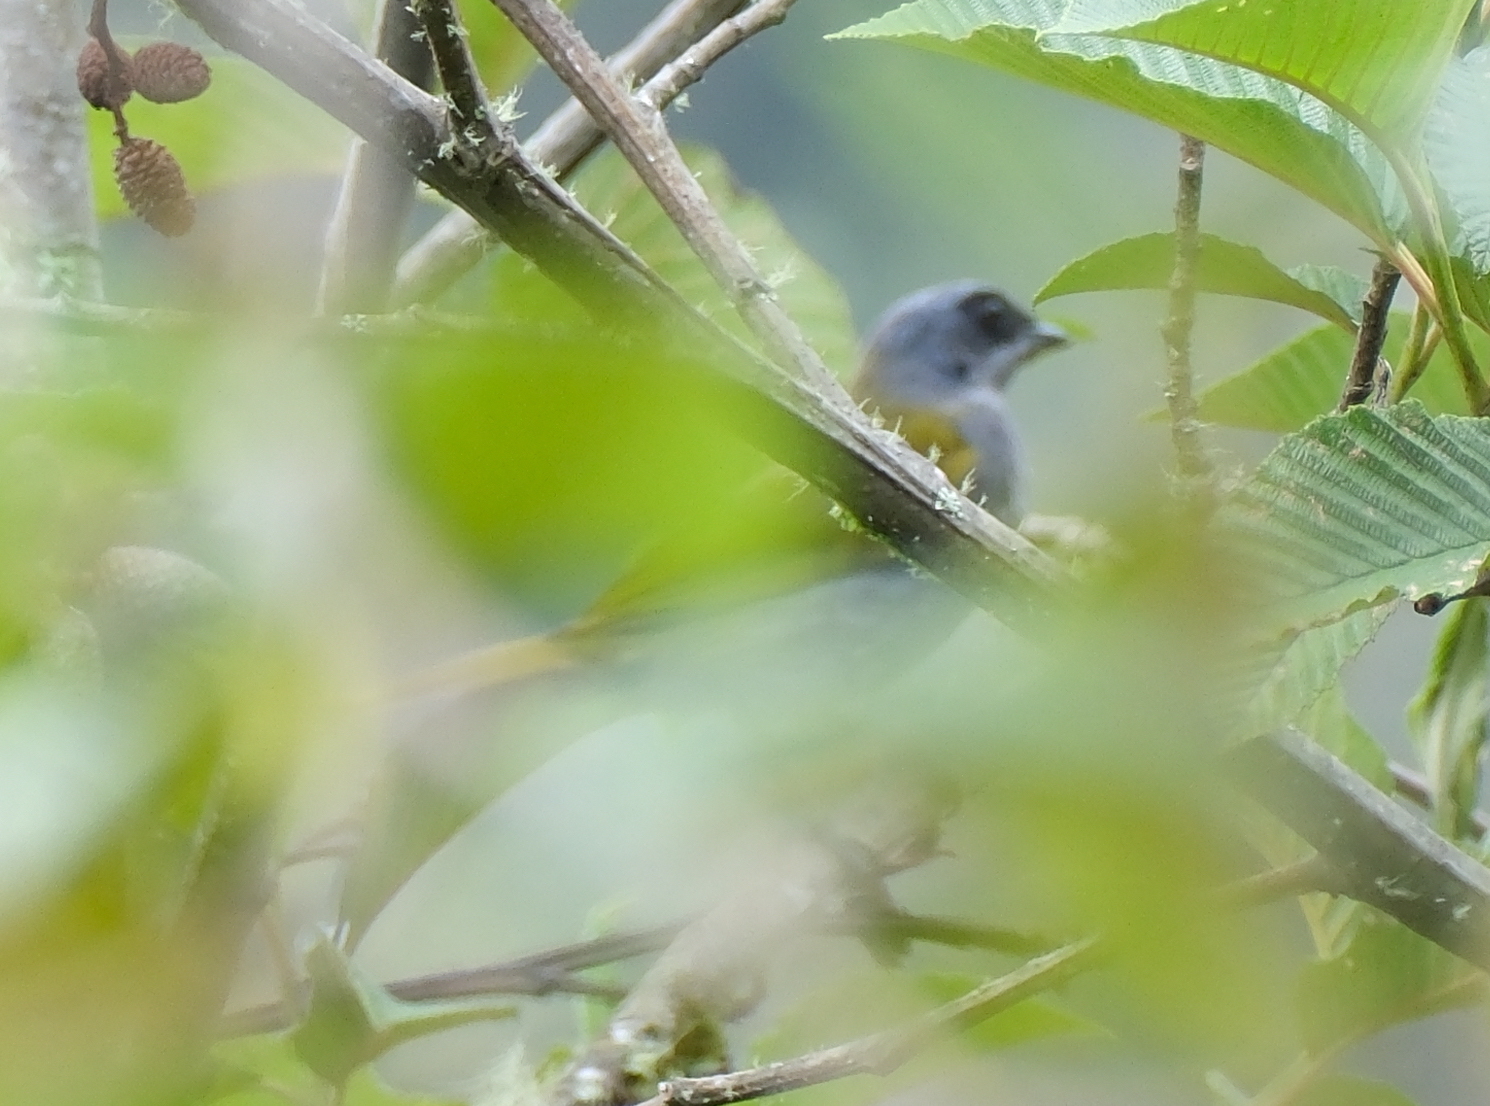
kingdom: Animalia
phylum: Chordata
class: Aves
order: Passeriformes
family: Thraupidae
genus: Sporathraupis
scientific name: Sporathraupis cyanocephala
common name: Blue-capped tanager
